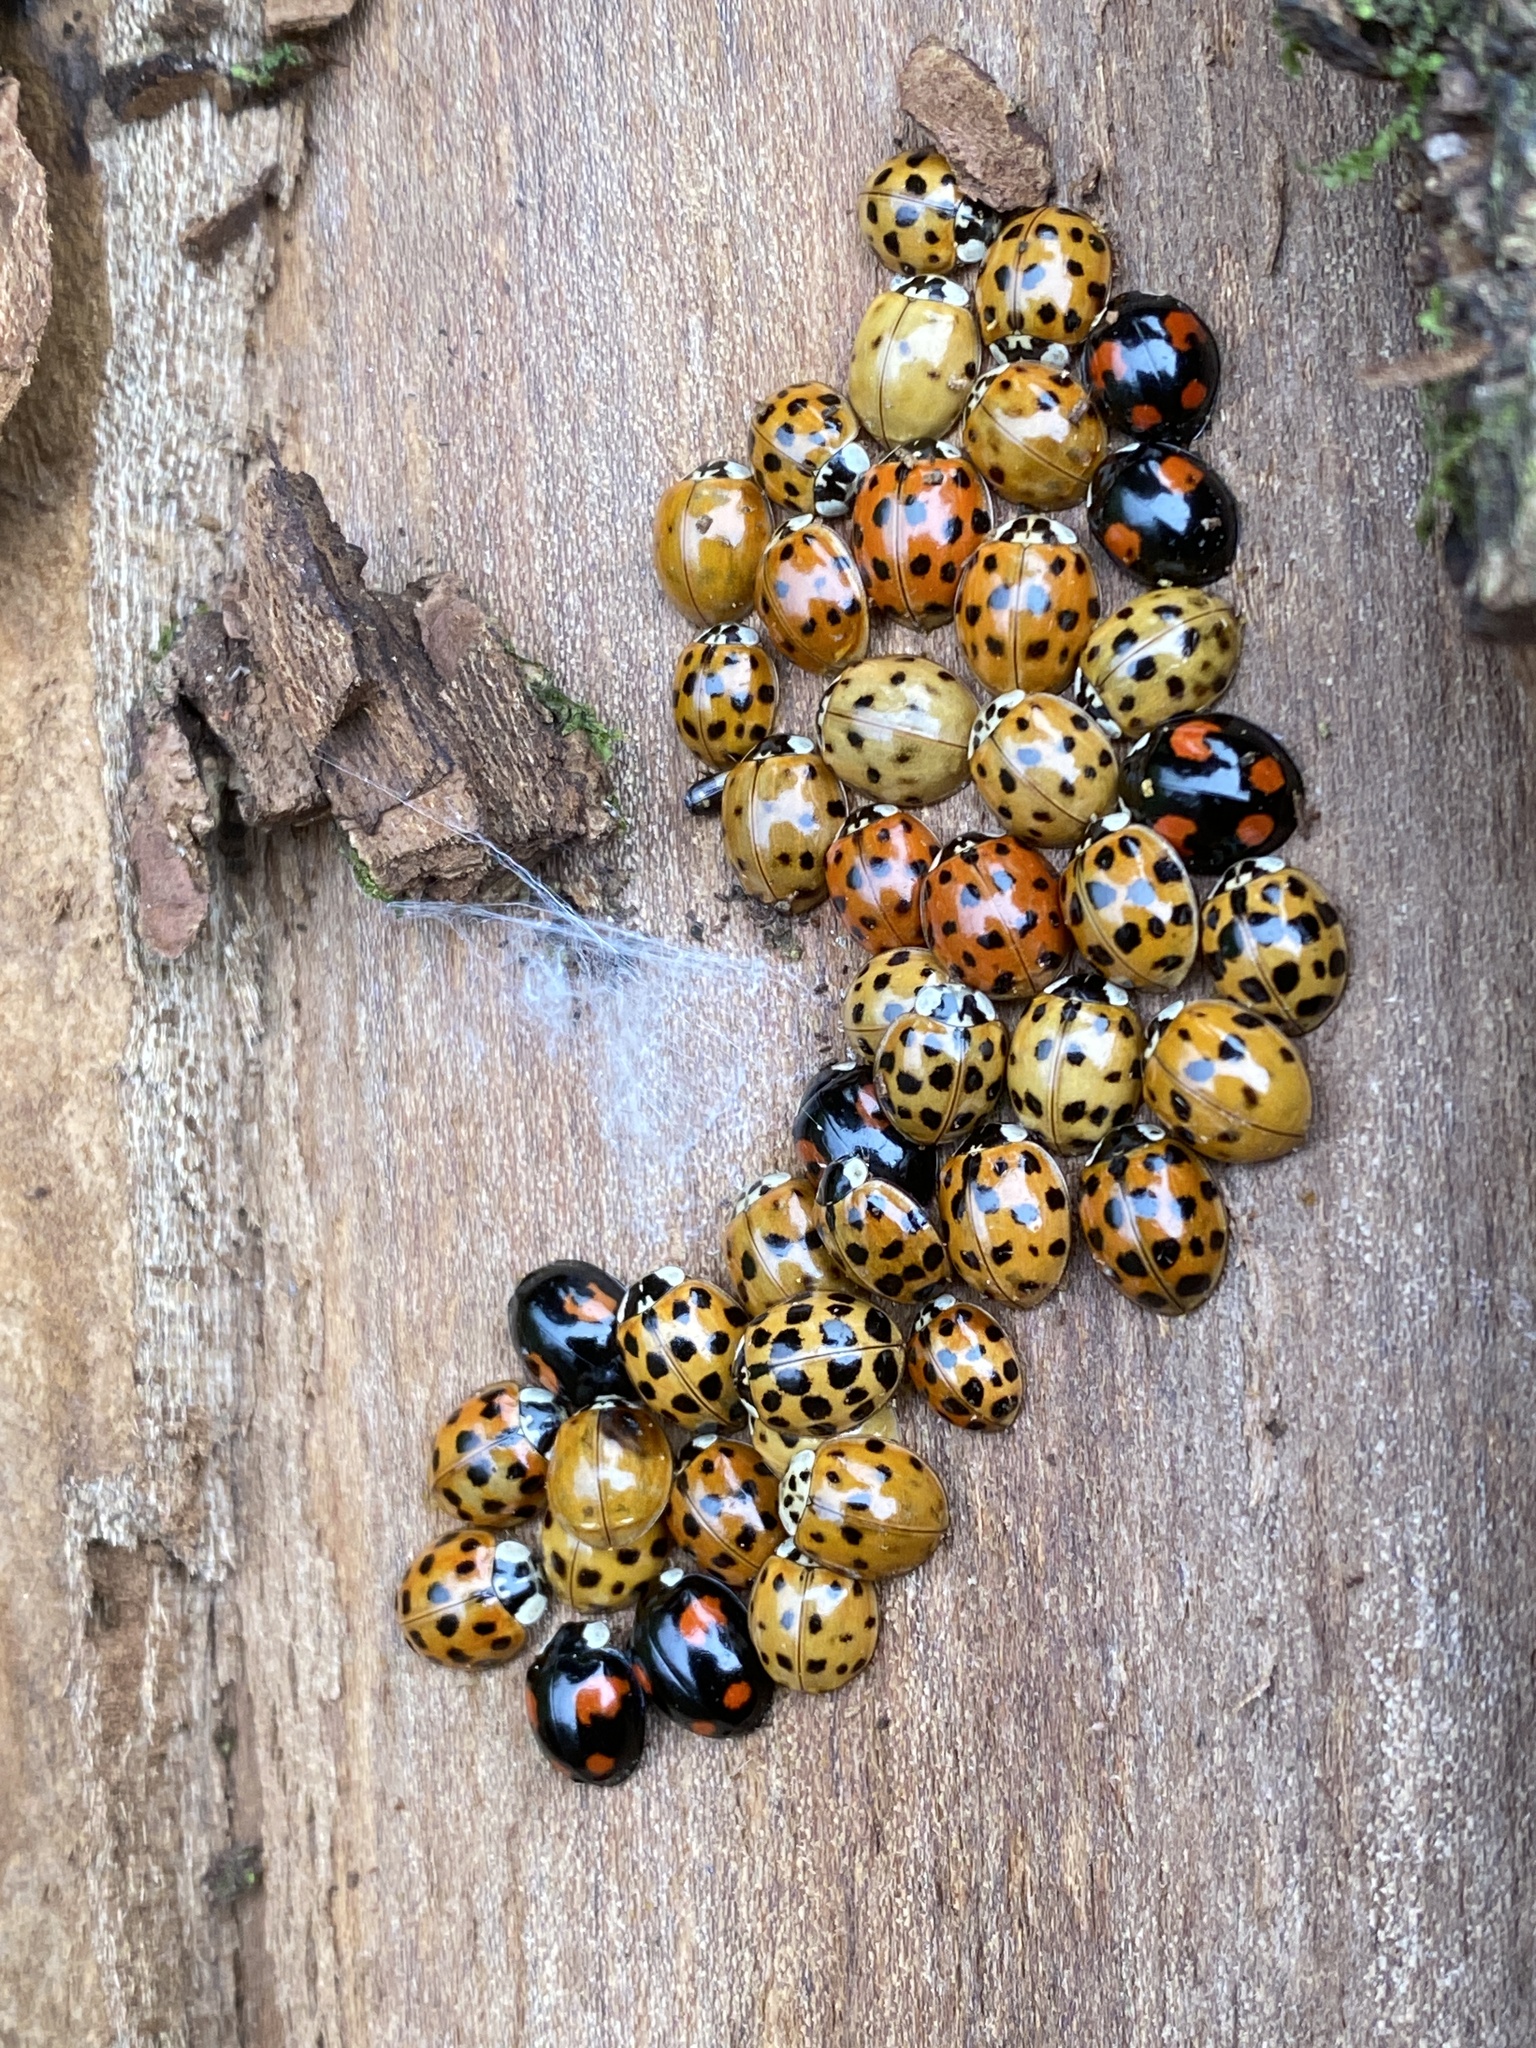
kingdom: Animalia
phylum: Arthropoda
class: Insecta
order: Coleoptera
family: Coccinellidae
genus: Harmonia
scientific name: Harmonia axyridis
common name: Harlequin ladybird
